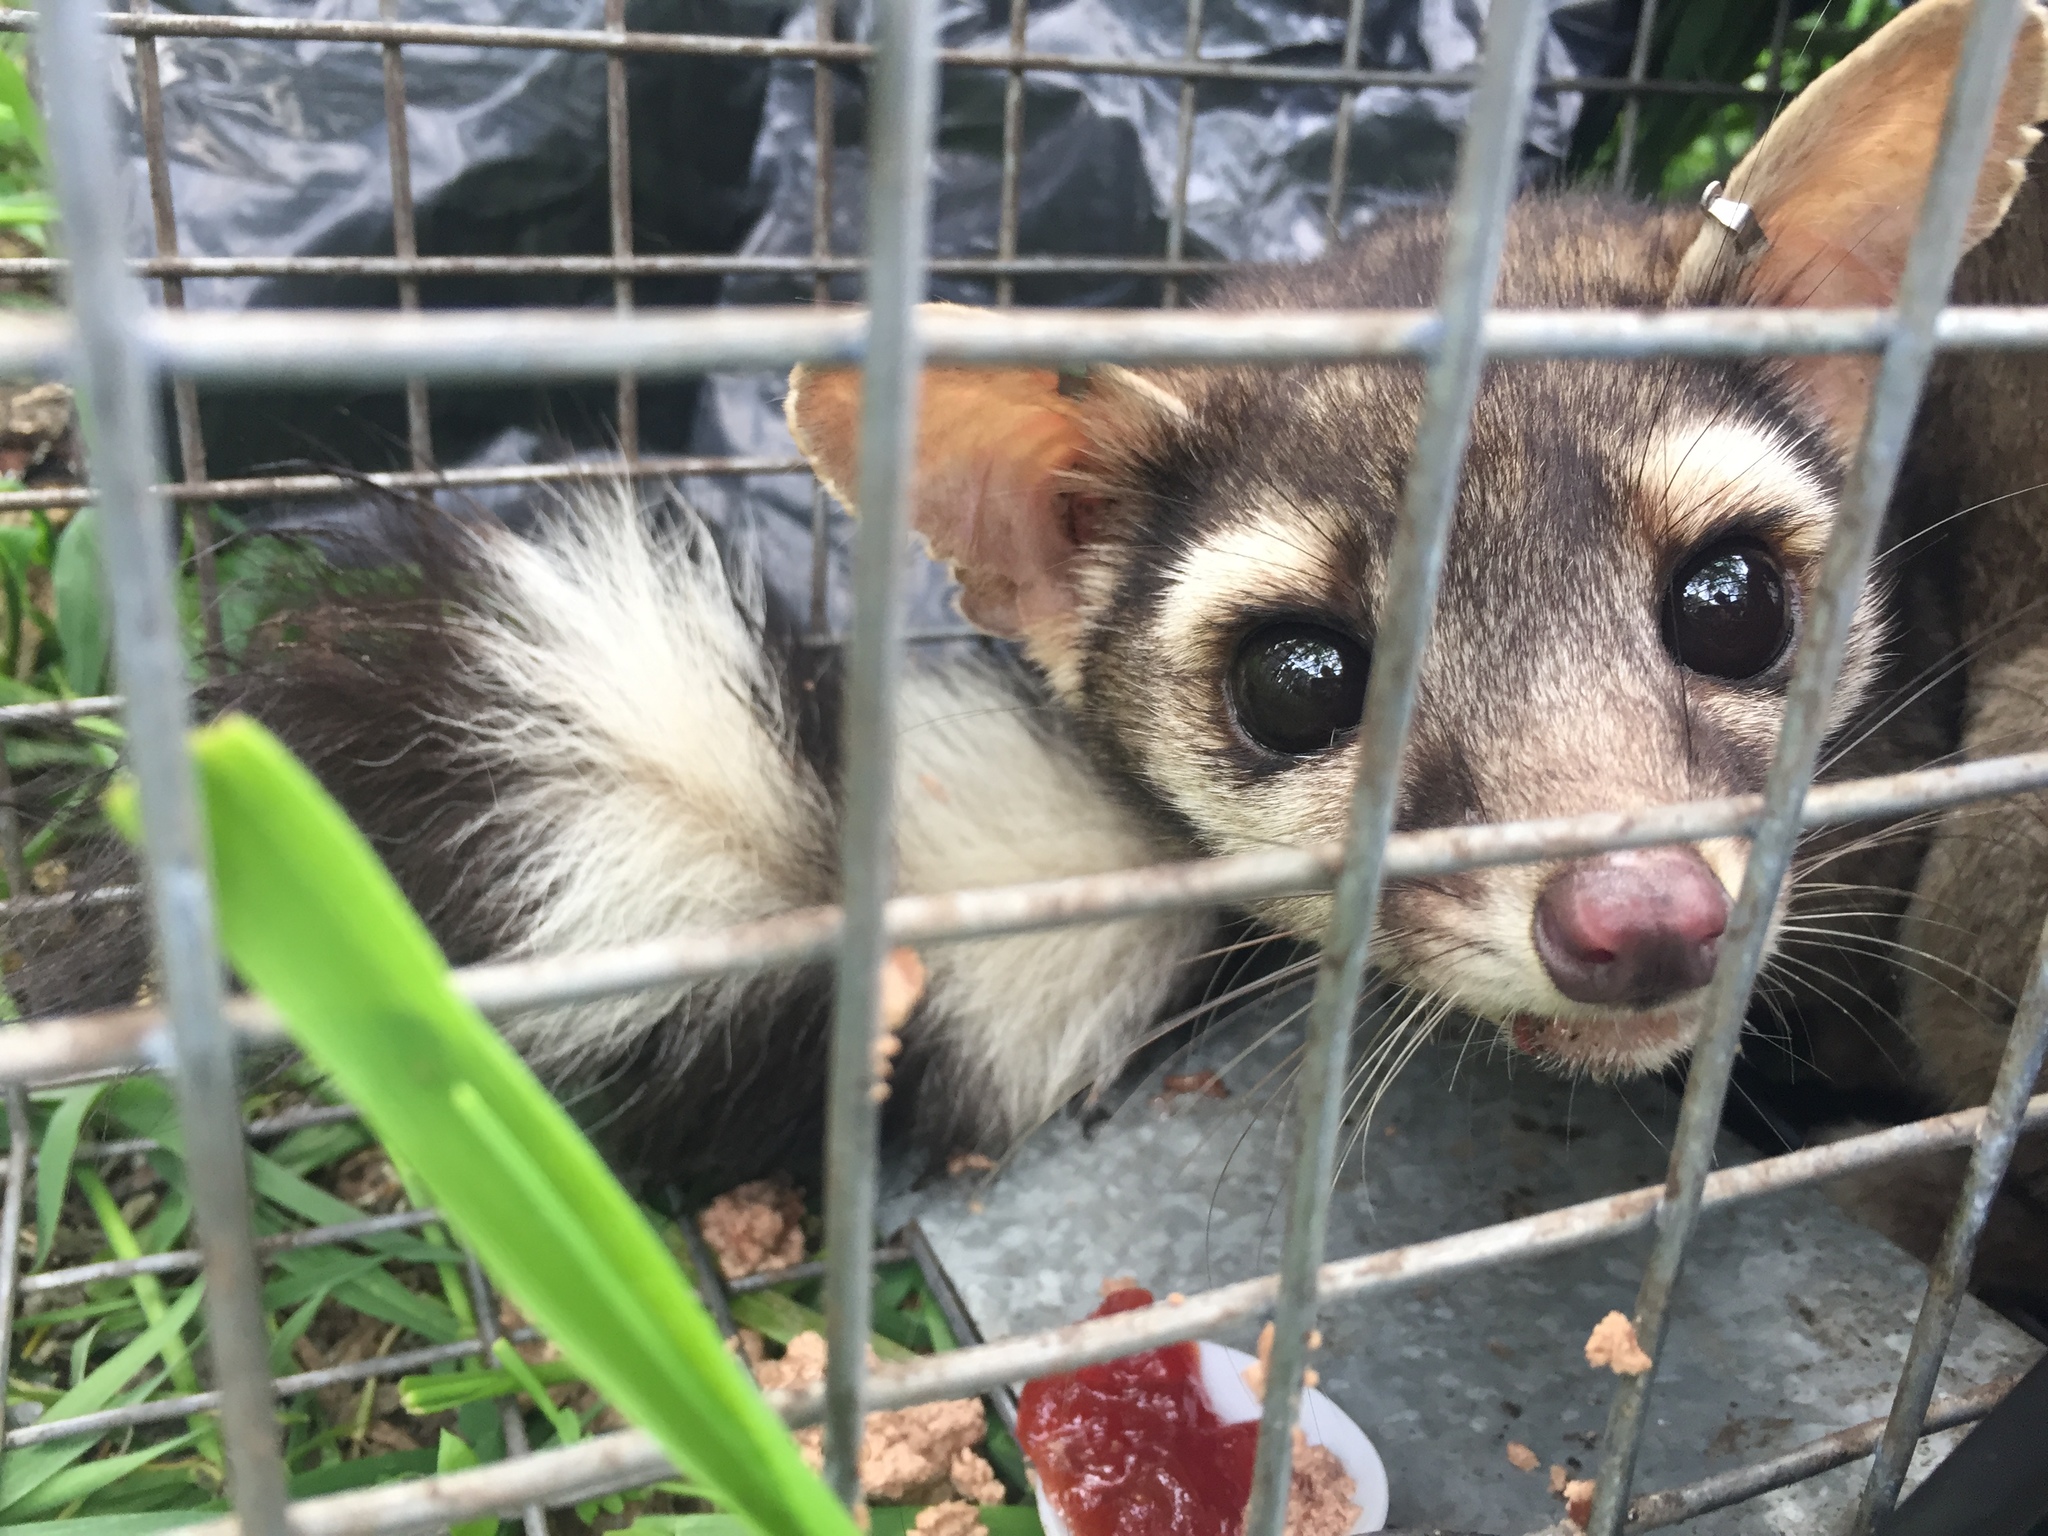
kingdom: Animalia
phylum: Chordata
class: Mammalia
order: Carnivora
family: Procyonidae
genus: Bassariscus
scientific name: Bassariscus astutus
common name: Ringtail
